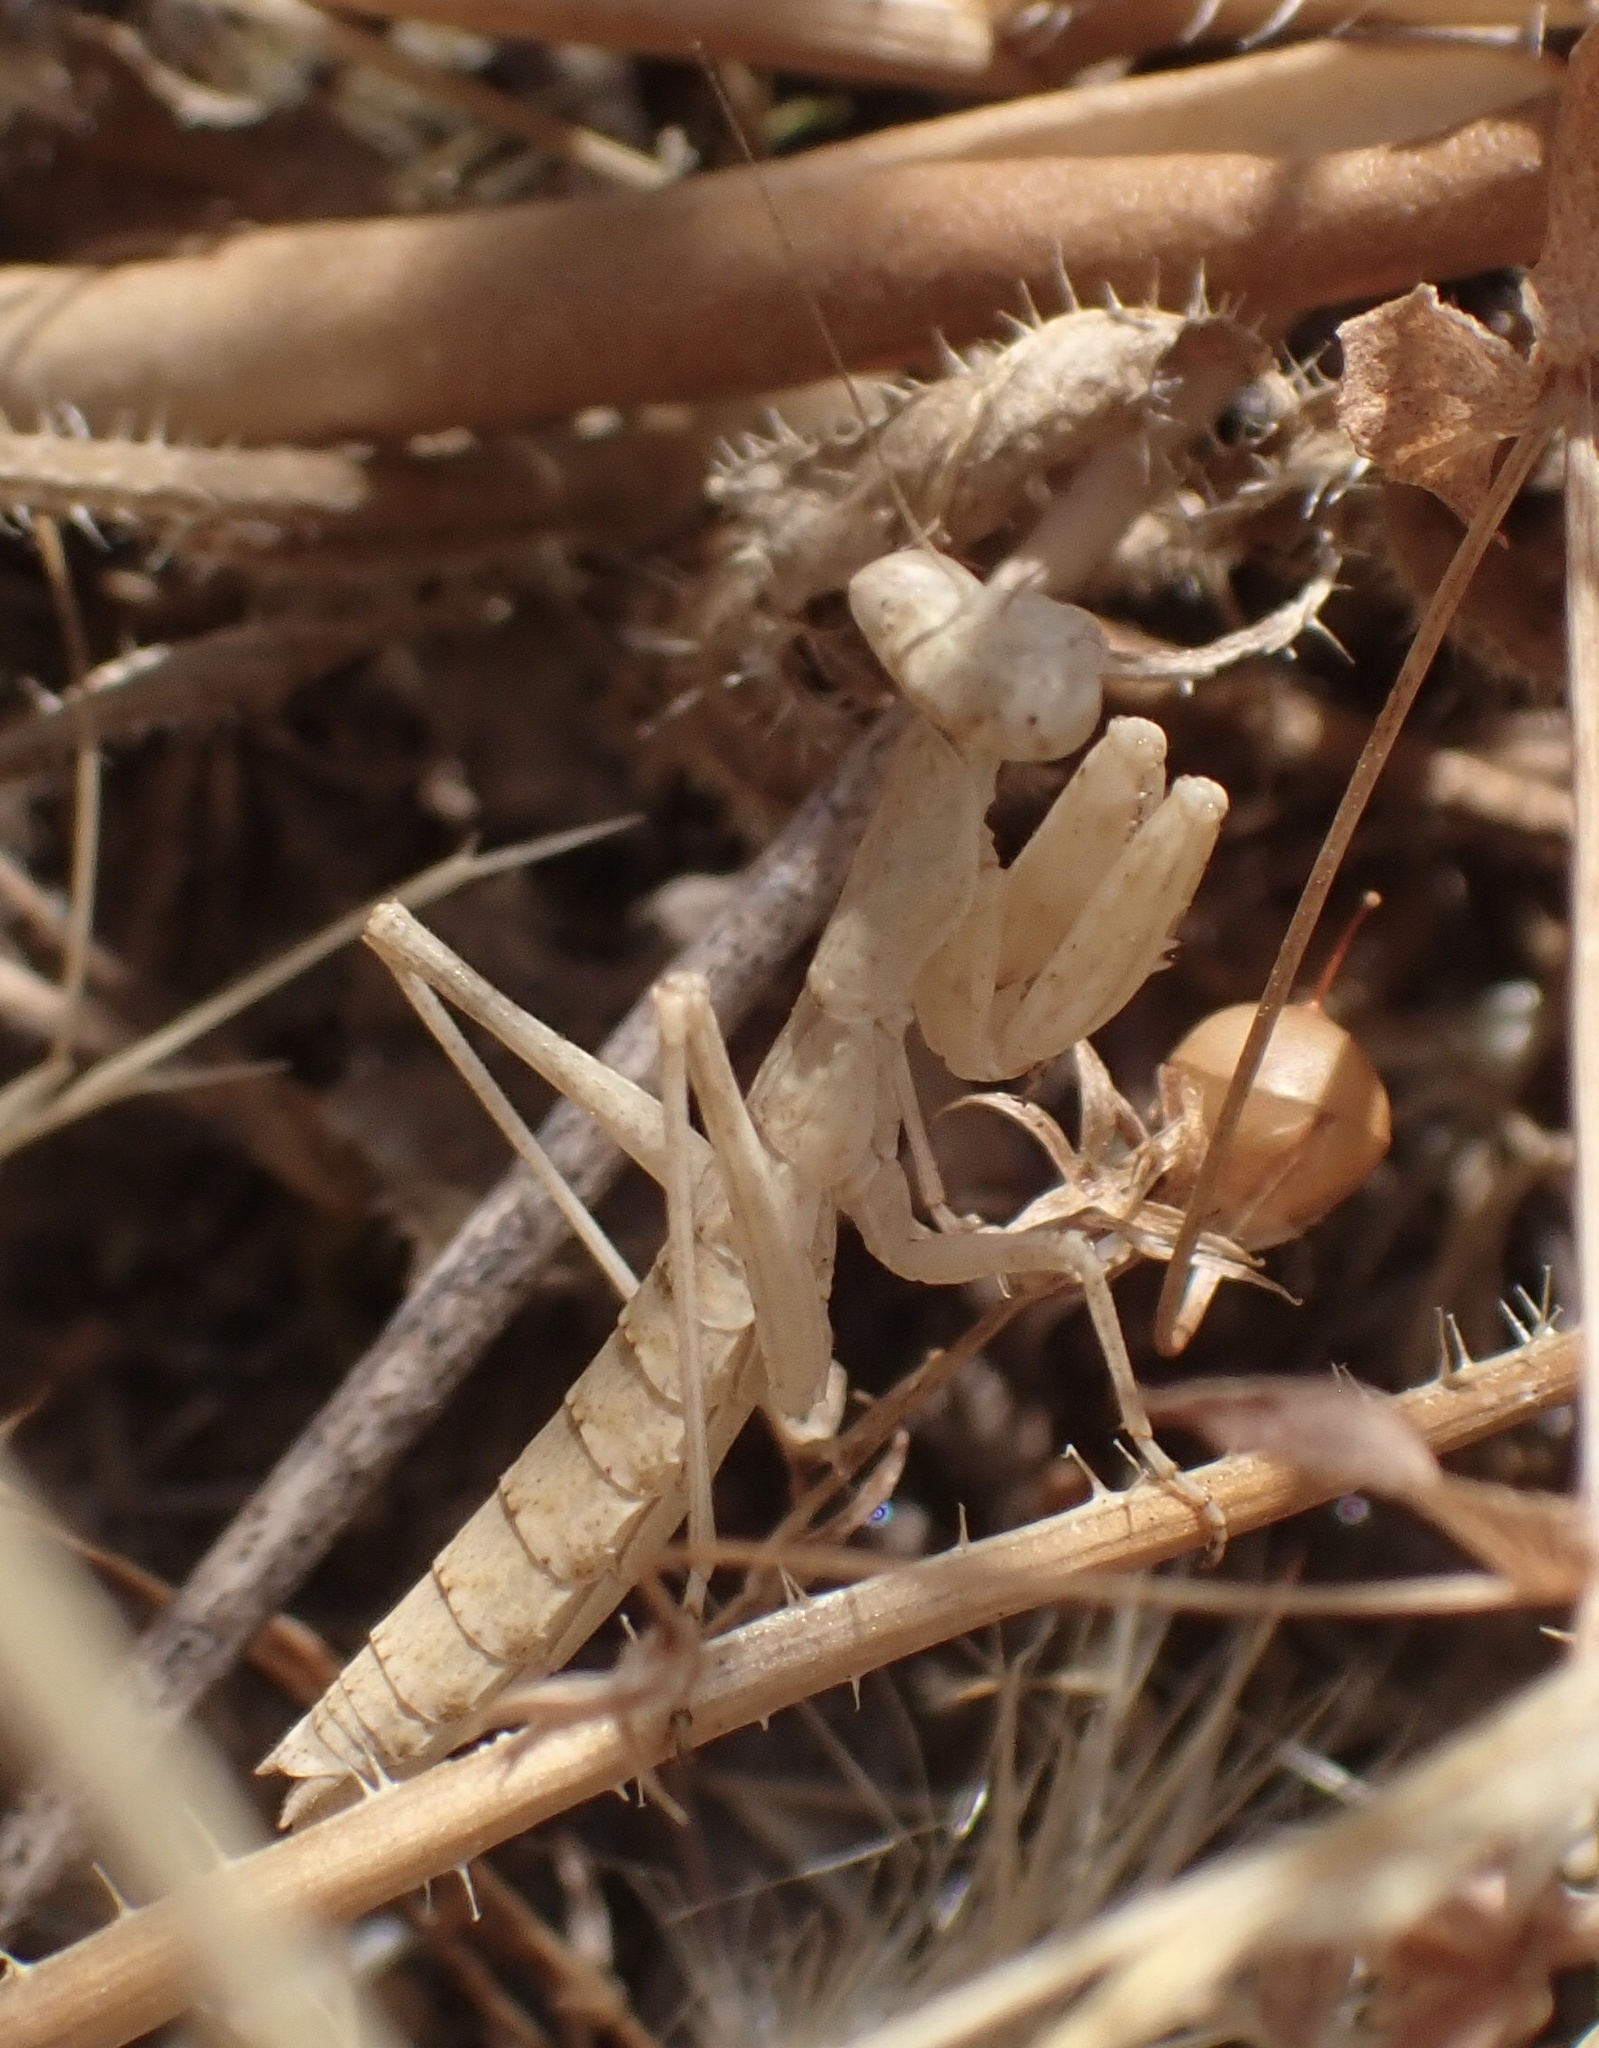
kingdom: Animalia
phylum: Arthropoda
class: Insecta
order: Mantodea
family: Amelidae
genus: Ameles
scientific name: Ameles decolor
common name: Dwarf mantis
